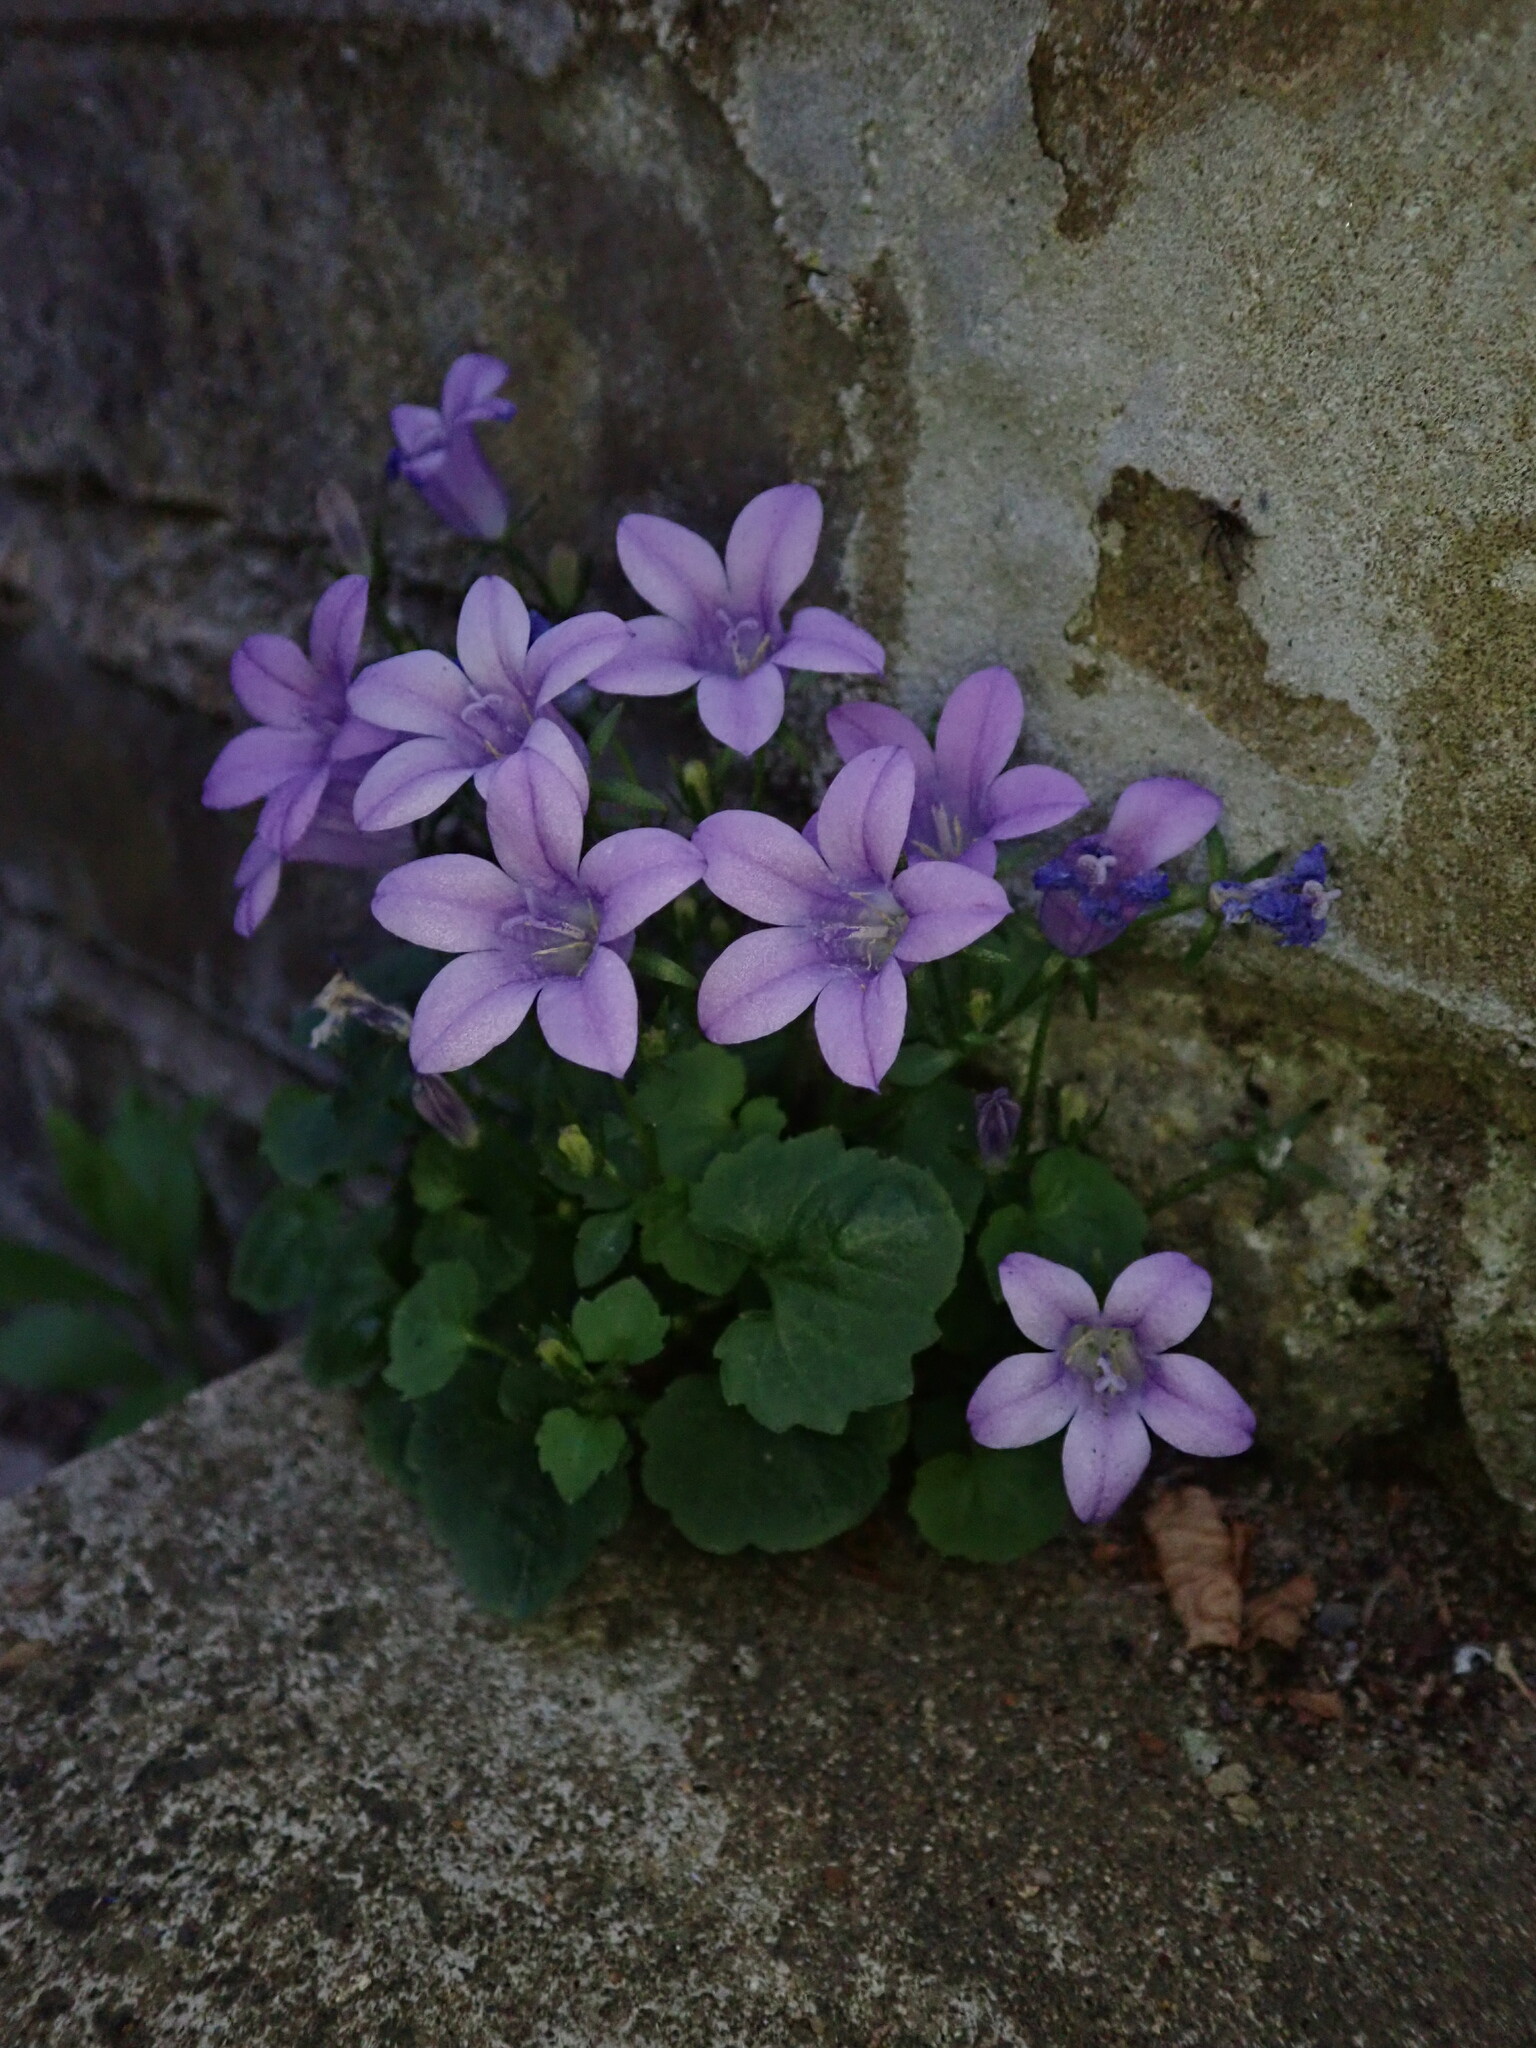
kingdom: Plantae
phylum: Tracheophyta
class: Magnoliopsida
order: Asterales
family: Campanulaceae
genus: Campanula
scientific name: Campanula portenschlagiana
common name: Adria bellflower
